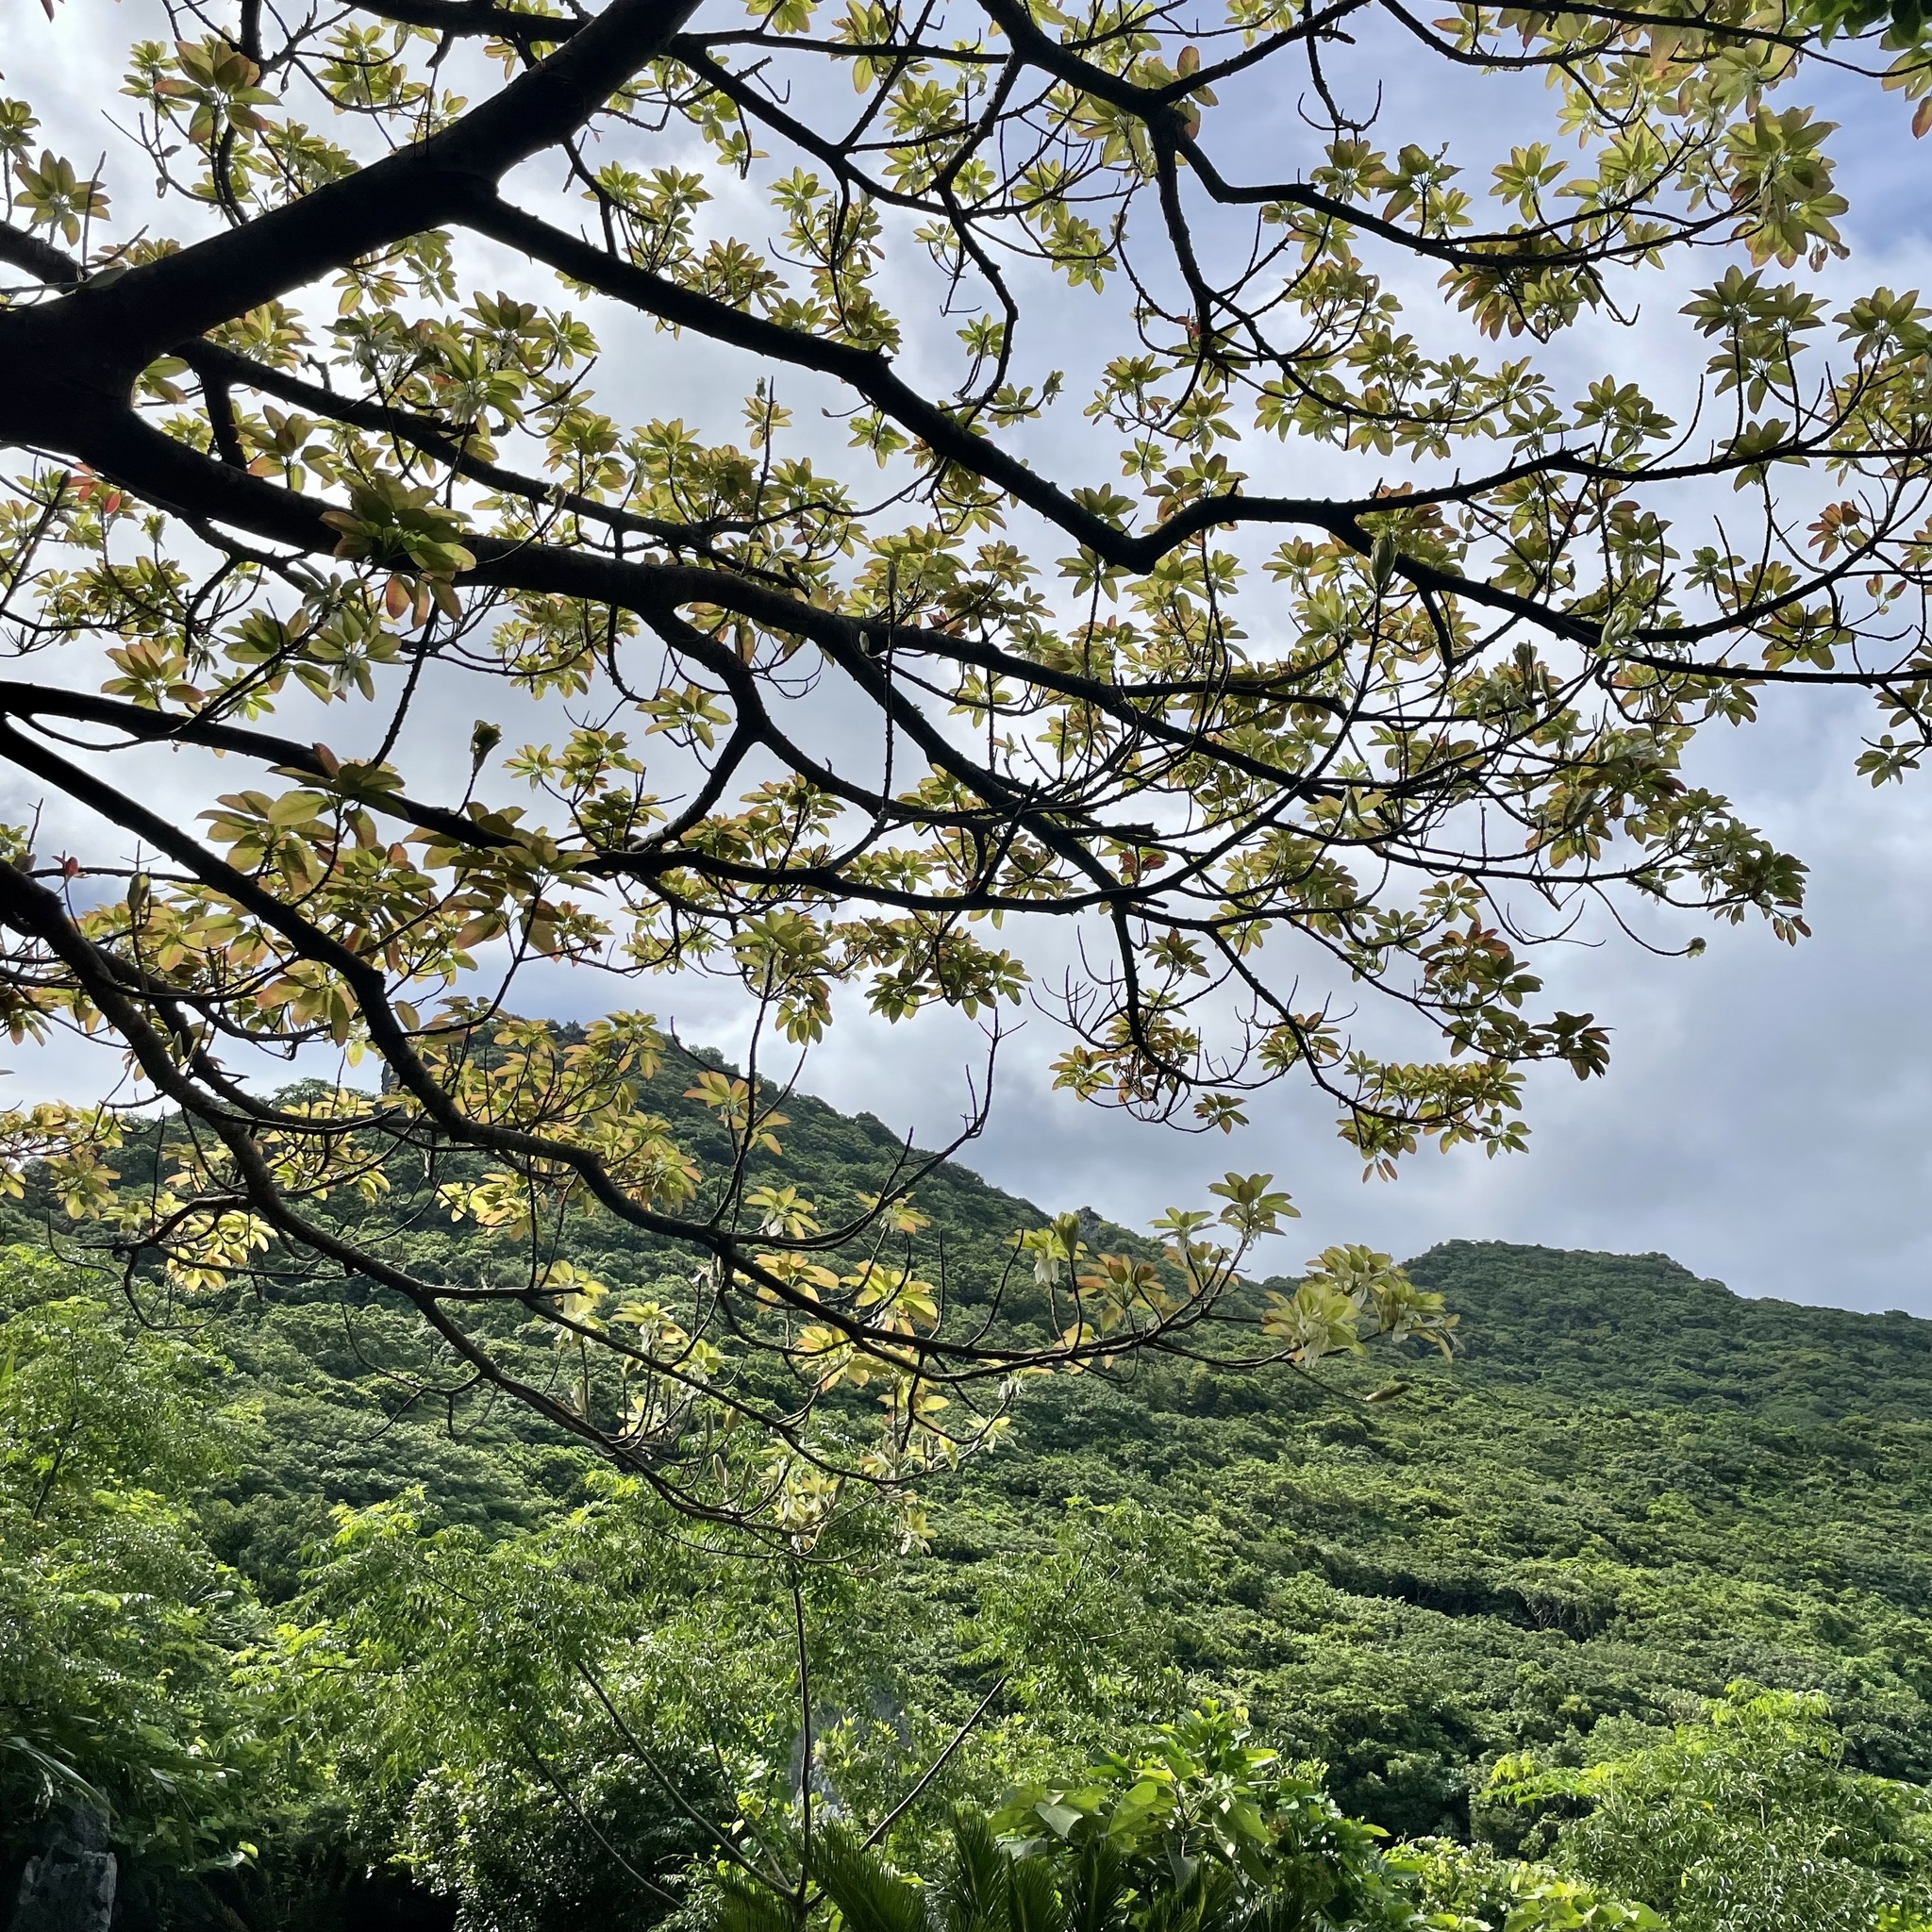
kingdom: Plantae
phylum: Tracheophyta
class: Magnoliopsida
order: Rosales
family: Moraceae
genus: Ficus
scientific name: Ficus subpisocarpa
